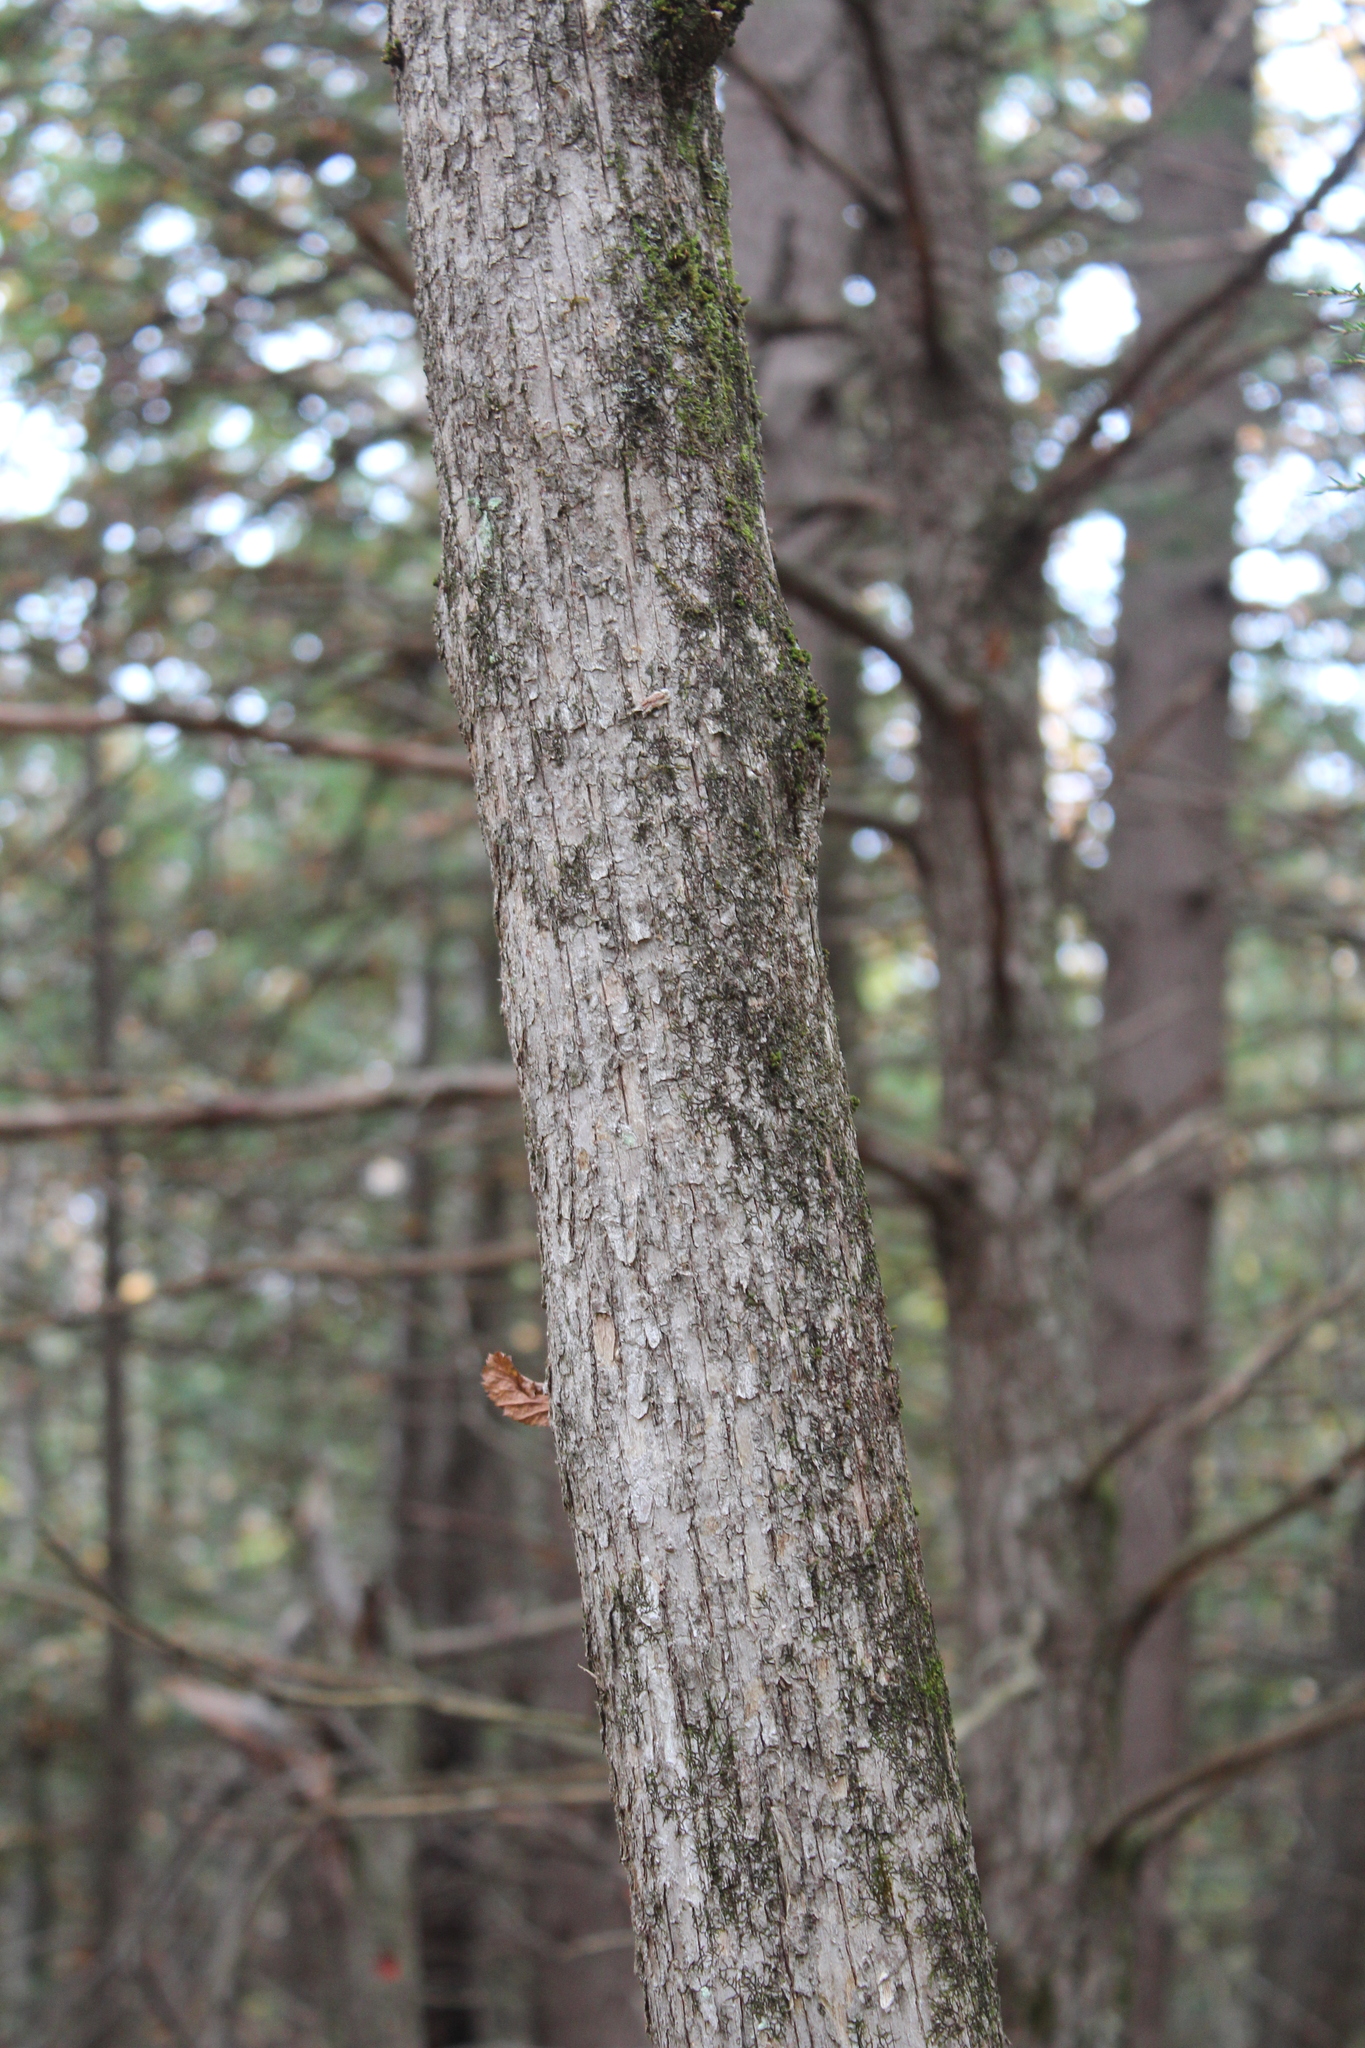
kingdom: Plantae
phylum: Tracheophyta
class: Magnoliopsida
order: Fagales
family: Betulaceae
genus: Ostrya
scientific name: Ostrya virginiana
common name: Ironwood
